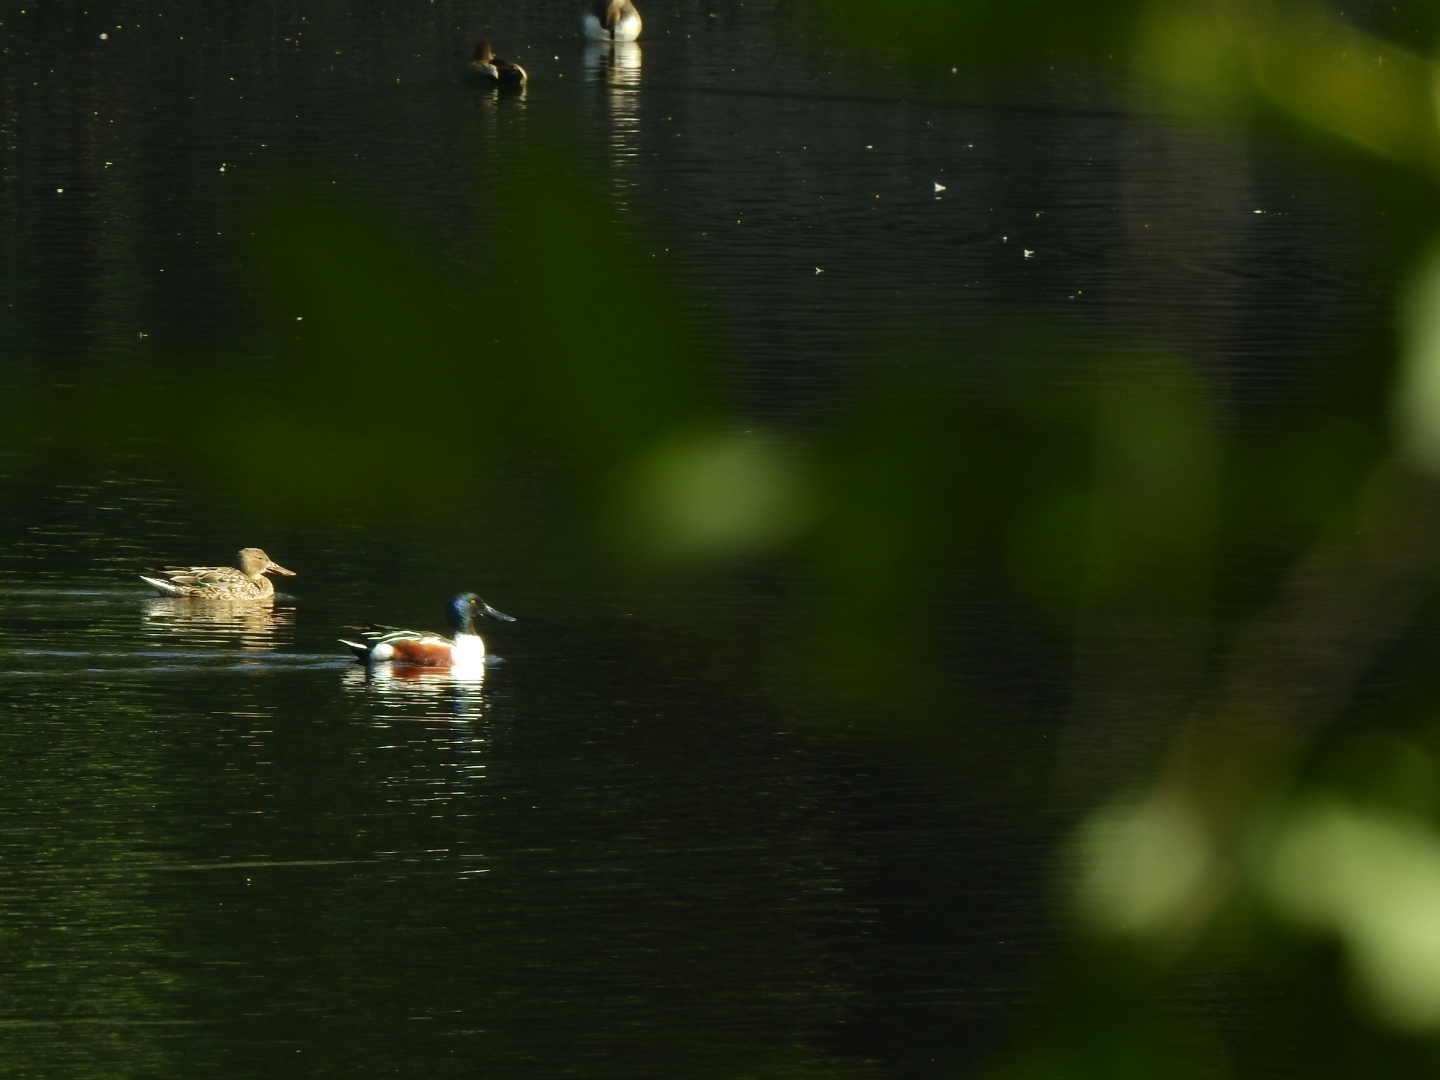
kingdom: Animalia
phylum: Chordata
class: Aves
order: Anseriformes
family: Anatidae
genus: Spatula
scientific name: Spatula clypeata
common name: Northern shoveler
